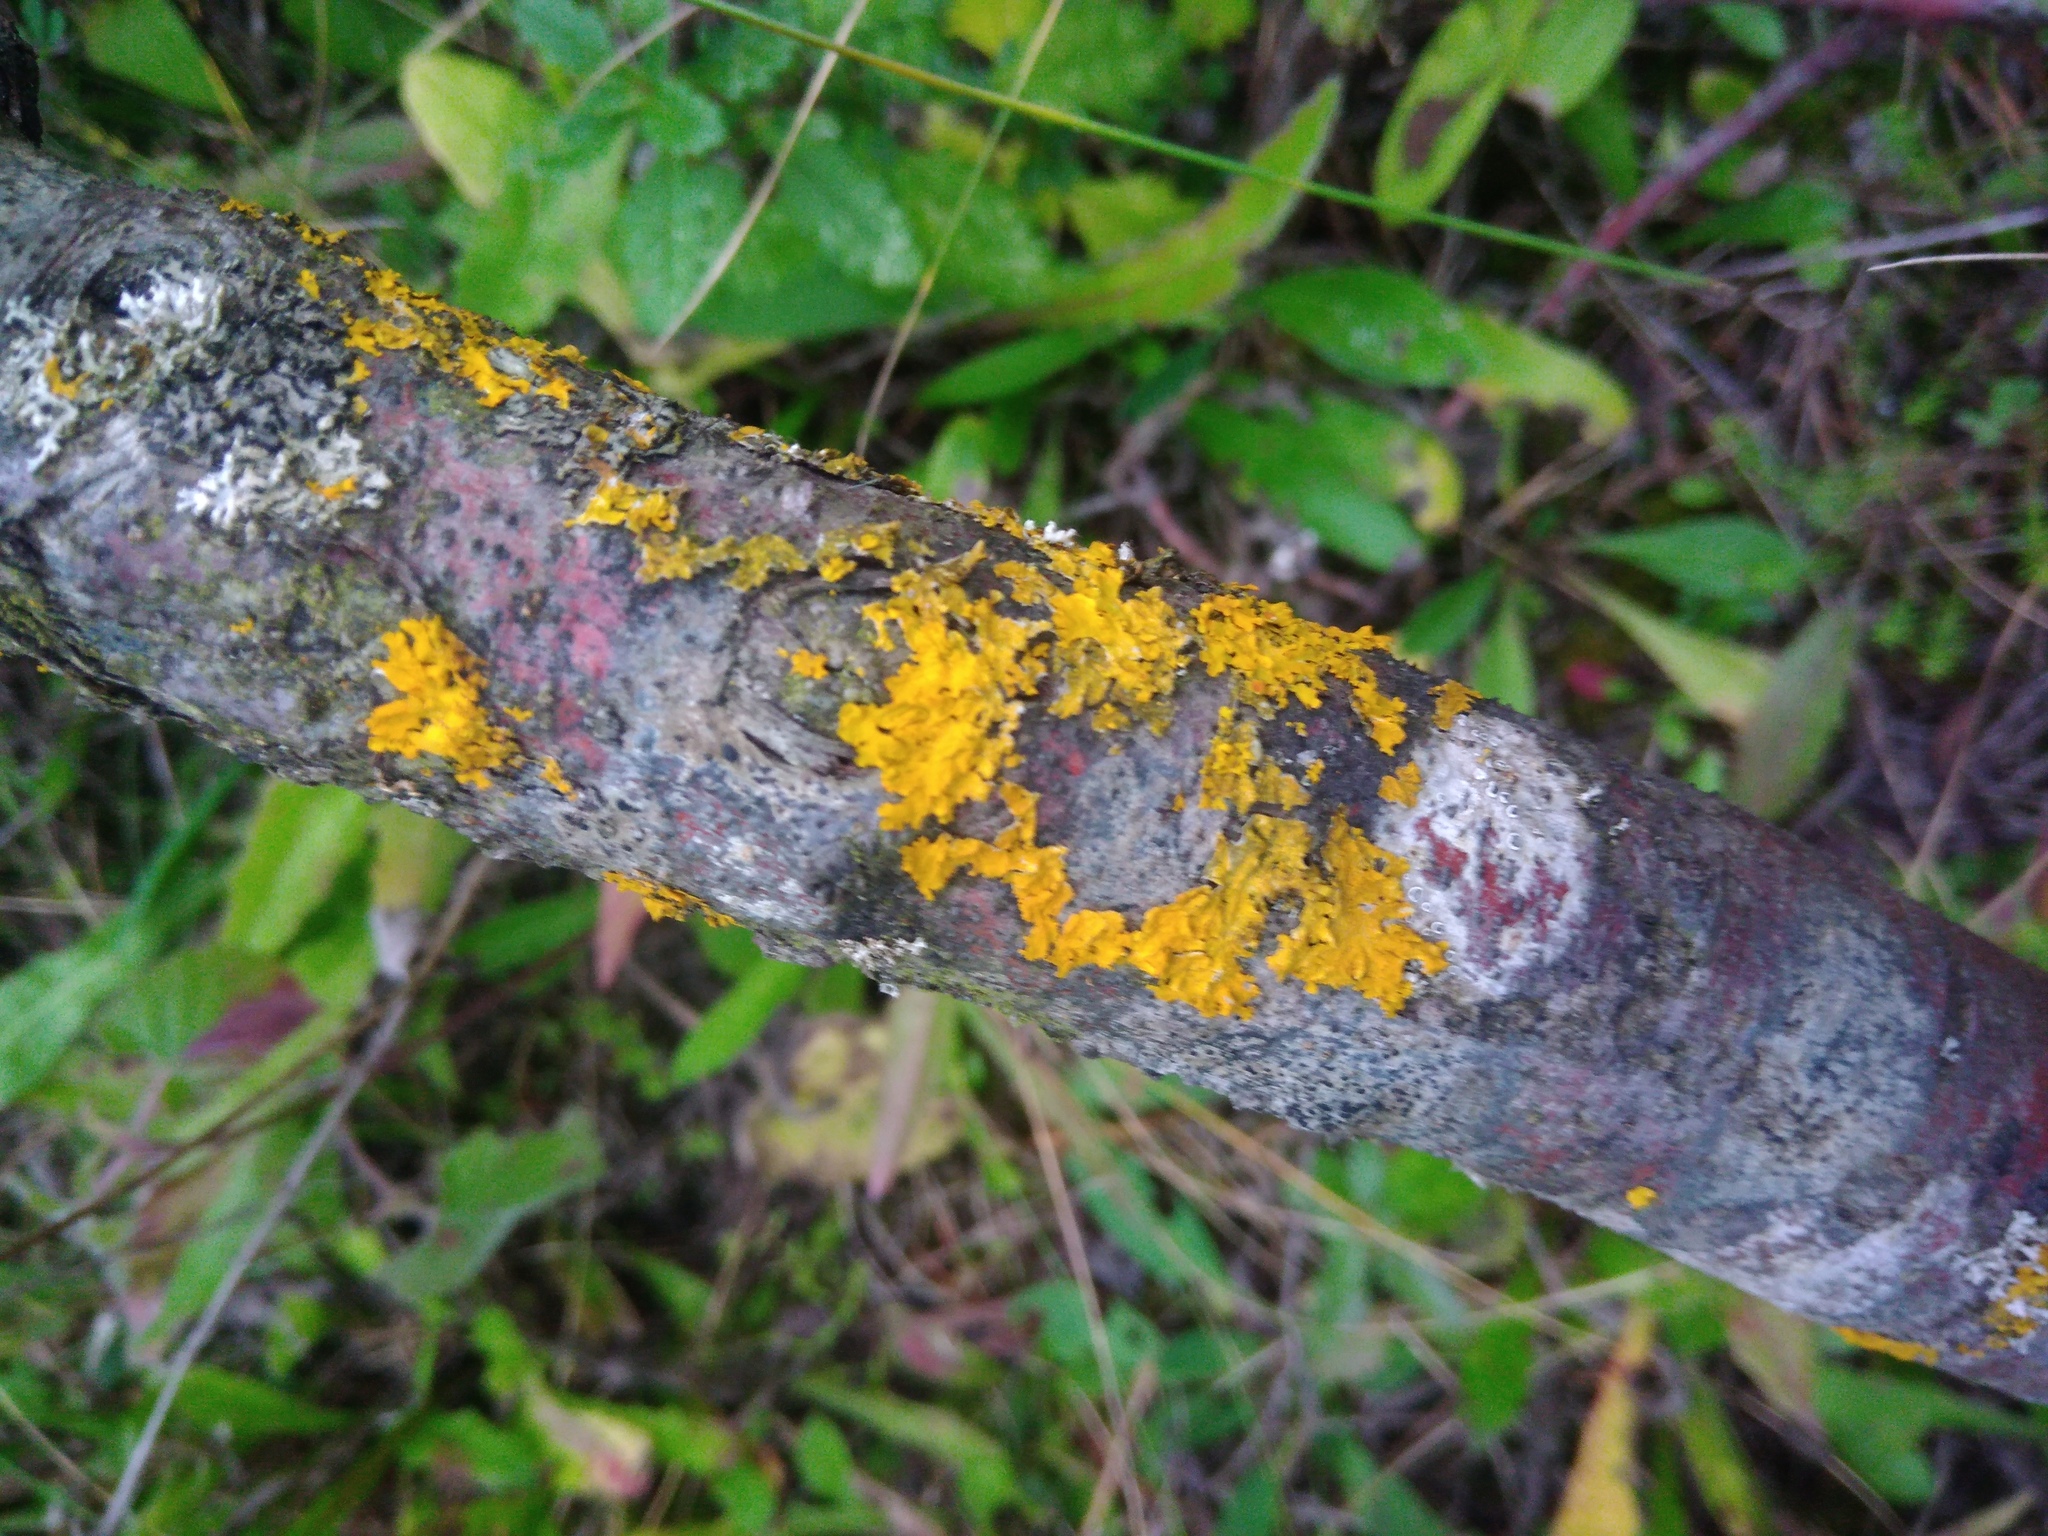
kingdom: Fungi
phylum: Ascomycota
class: Lecanoromycetes
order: Teloschistales
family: Teloschistaceae
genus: Xanthoria
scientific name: Xanthoria parietina
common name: Common orange lichen
